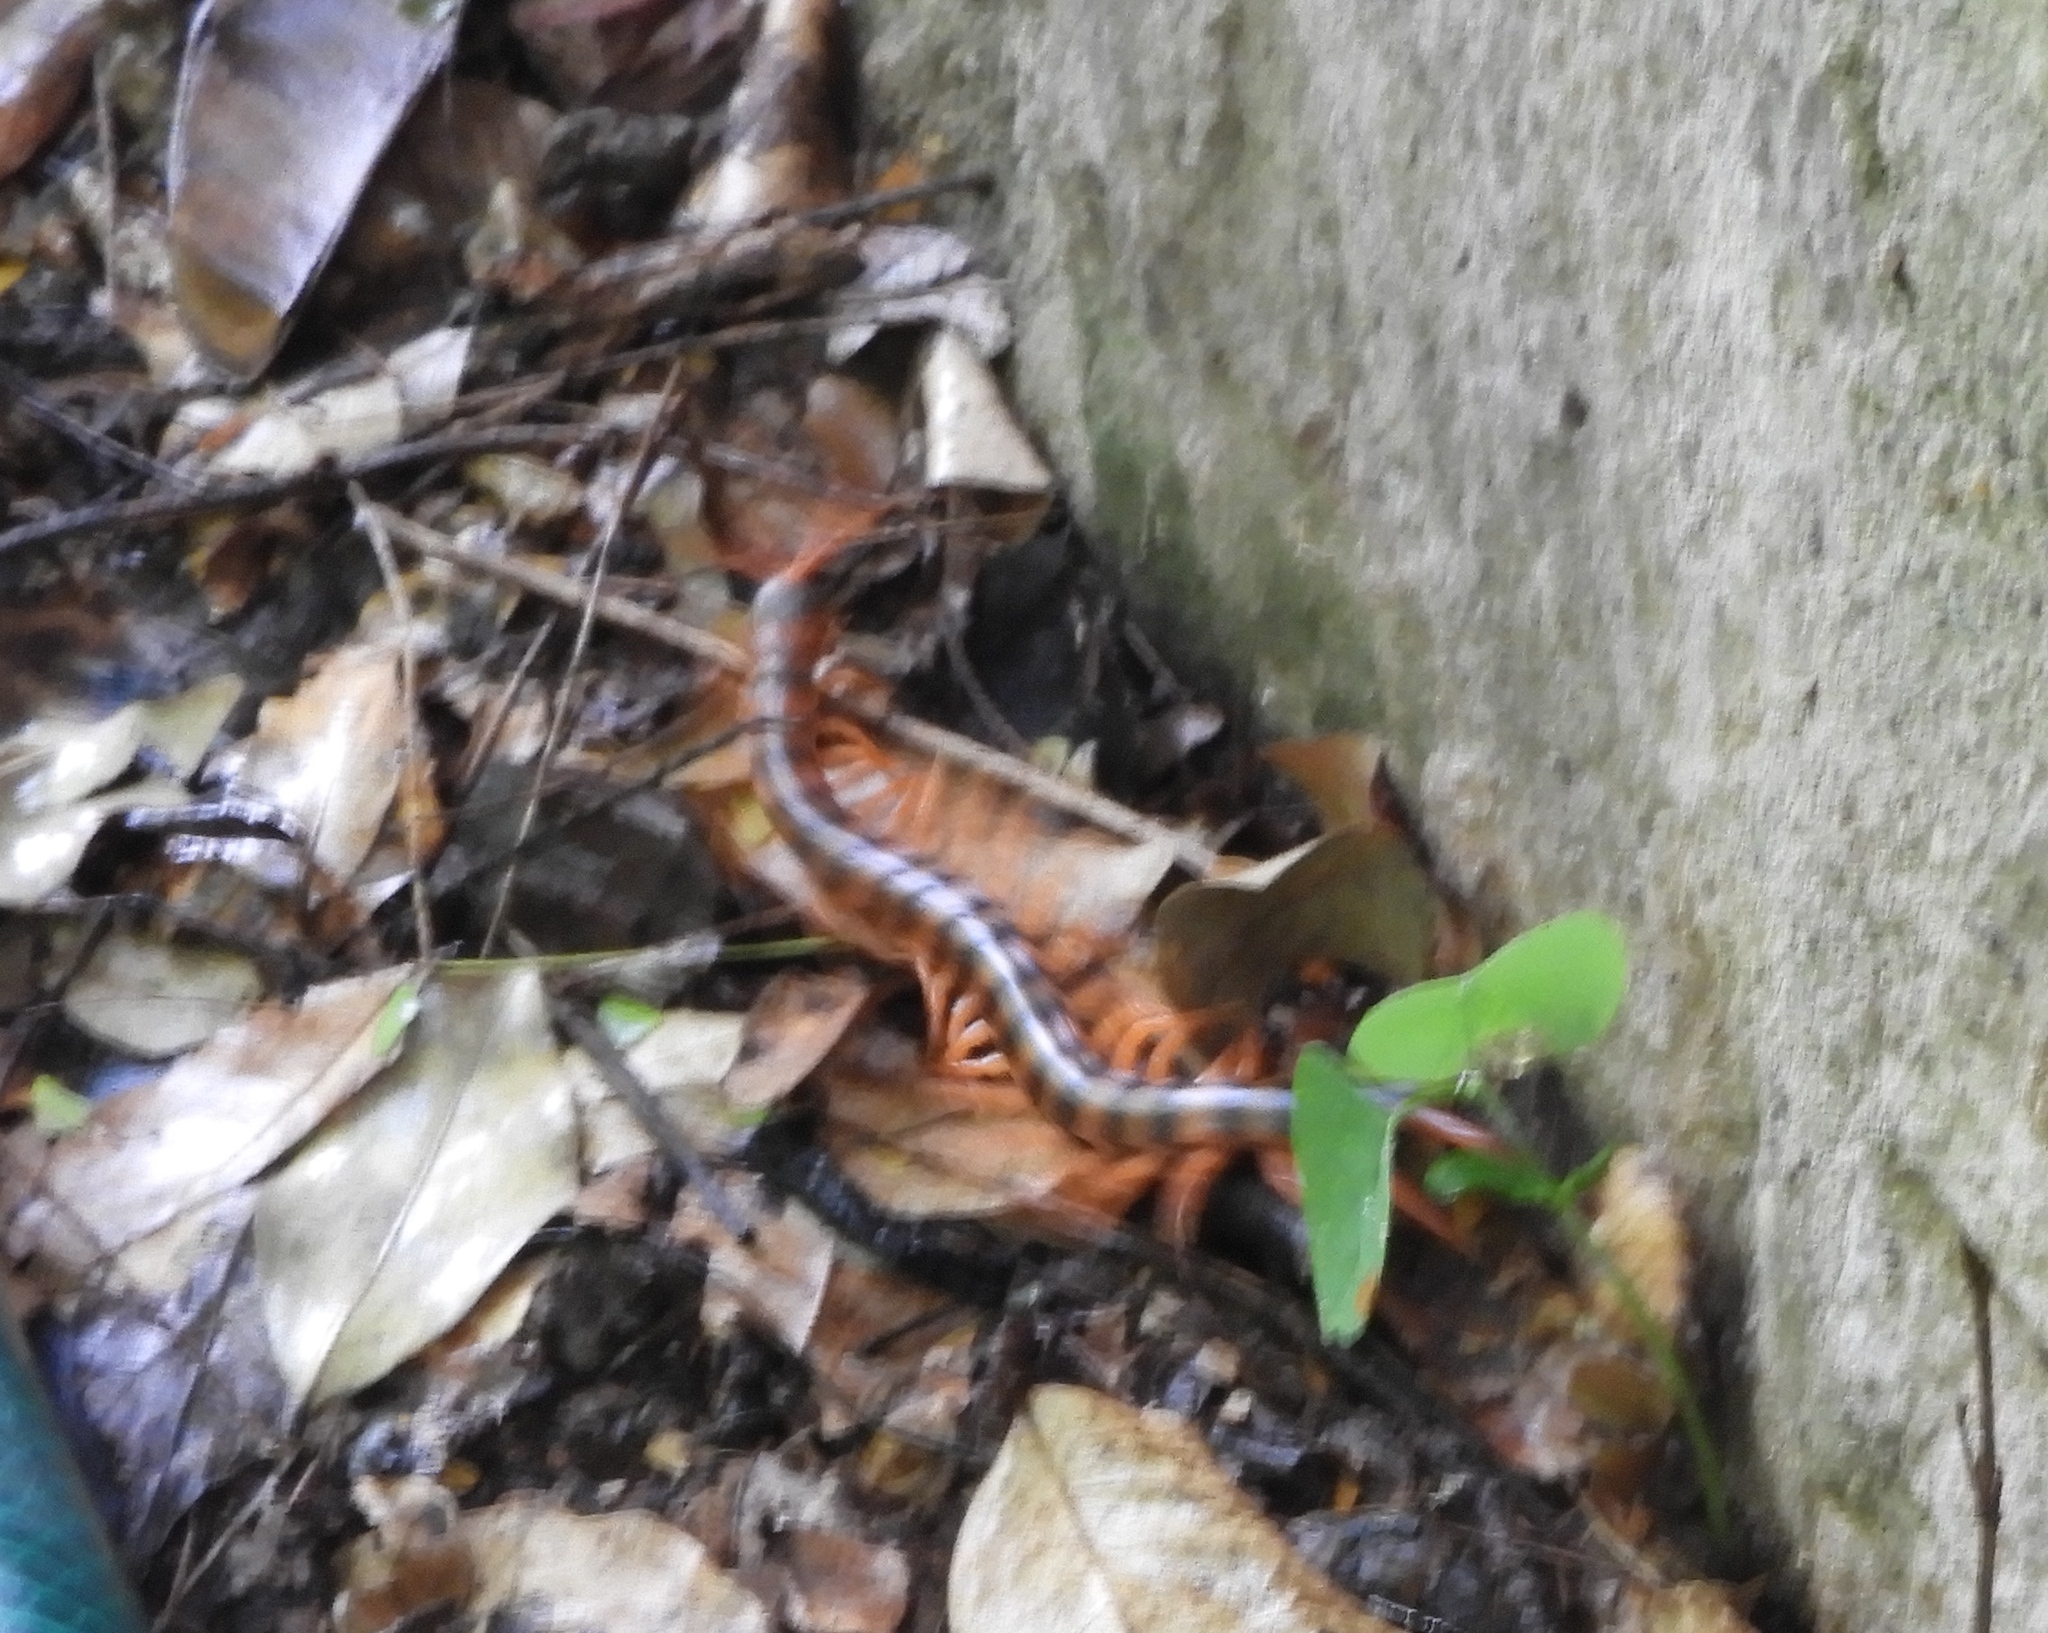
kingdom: Animalia
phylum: Arthropoda
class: Chilopoda
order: Scolopendromorpha
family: Scolopendridae
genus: Scolopendra
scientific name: Scolopendra heros
